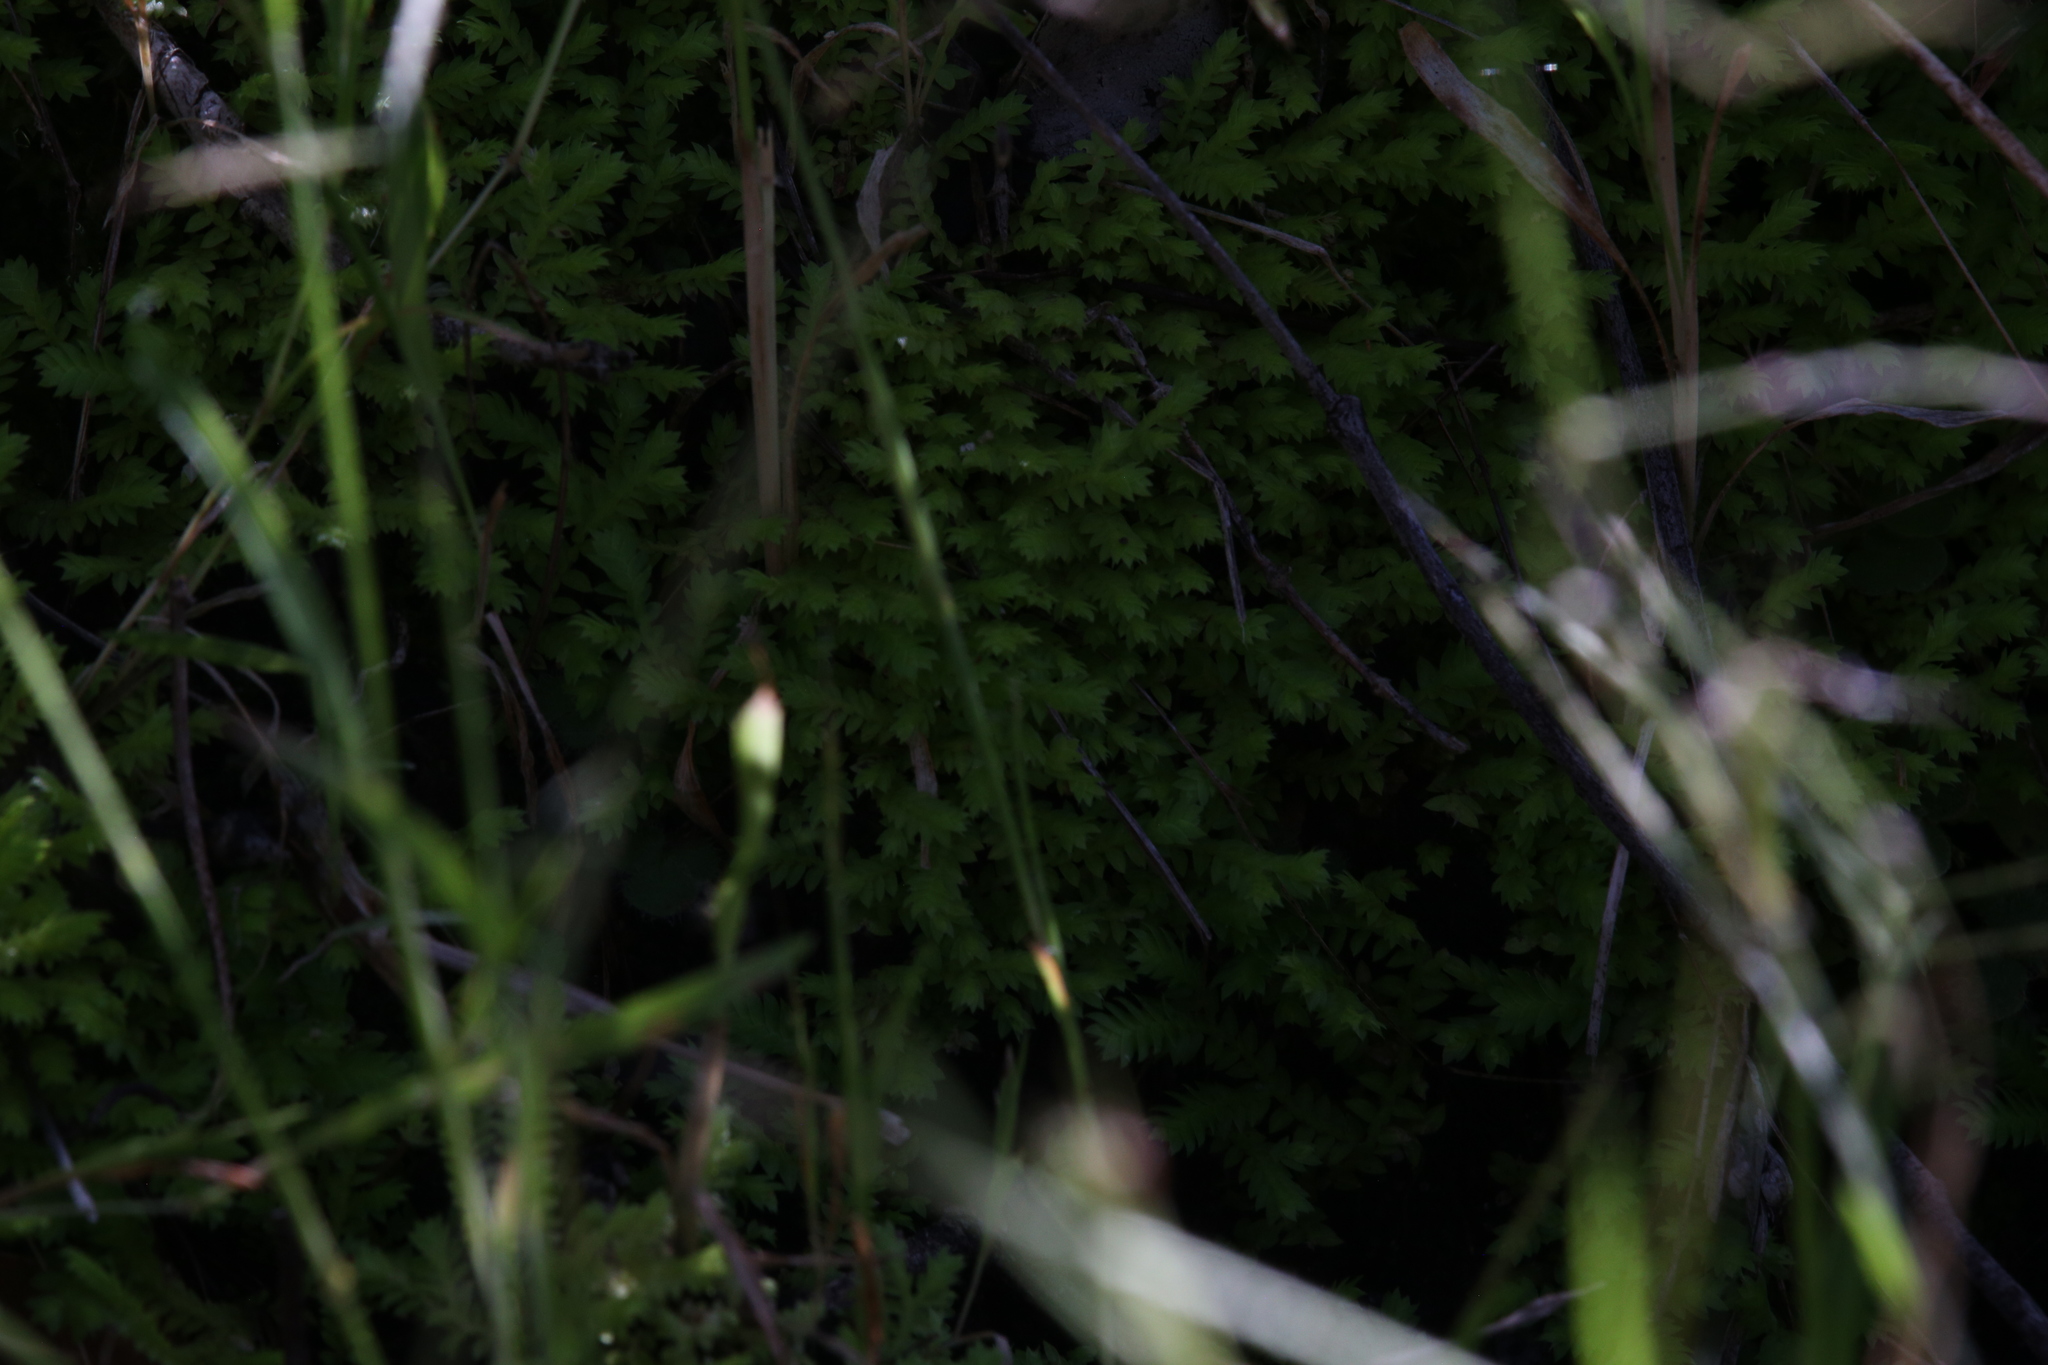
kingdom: Plantae
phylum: Tracheophyta
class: Lycopodiopsida
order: Selaginellales
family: Selaginellaceae
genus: Selaginella
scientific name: Selaginella ciliaris
